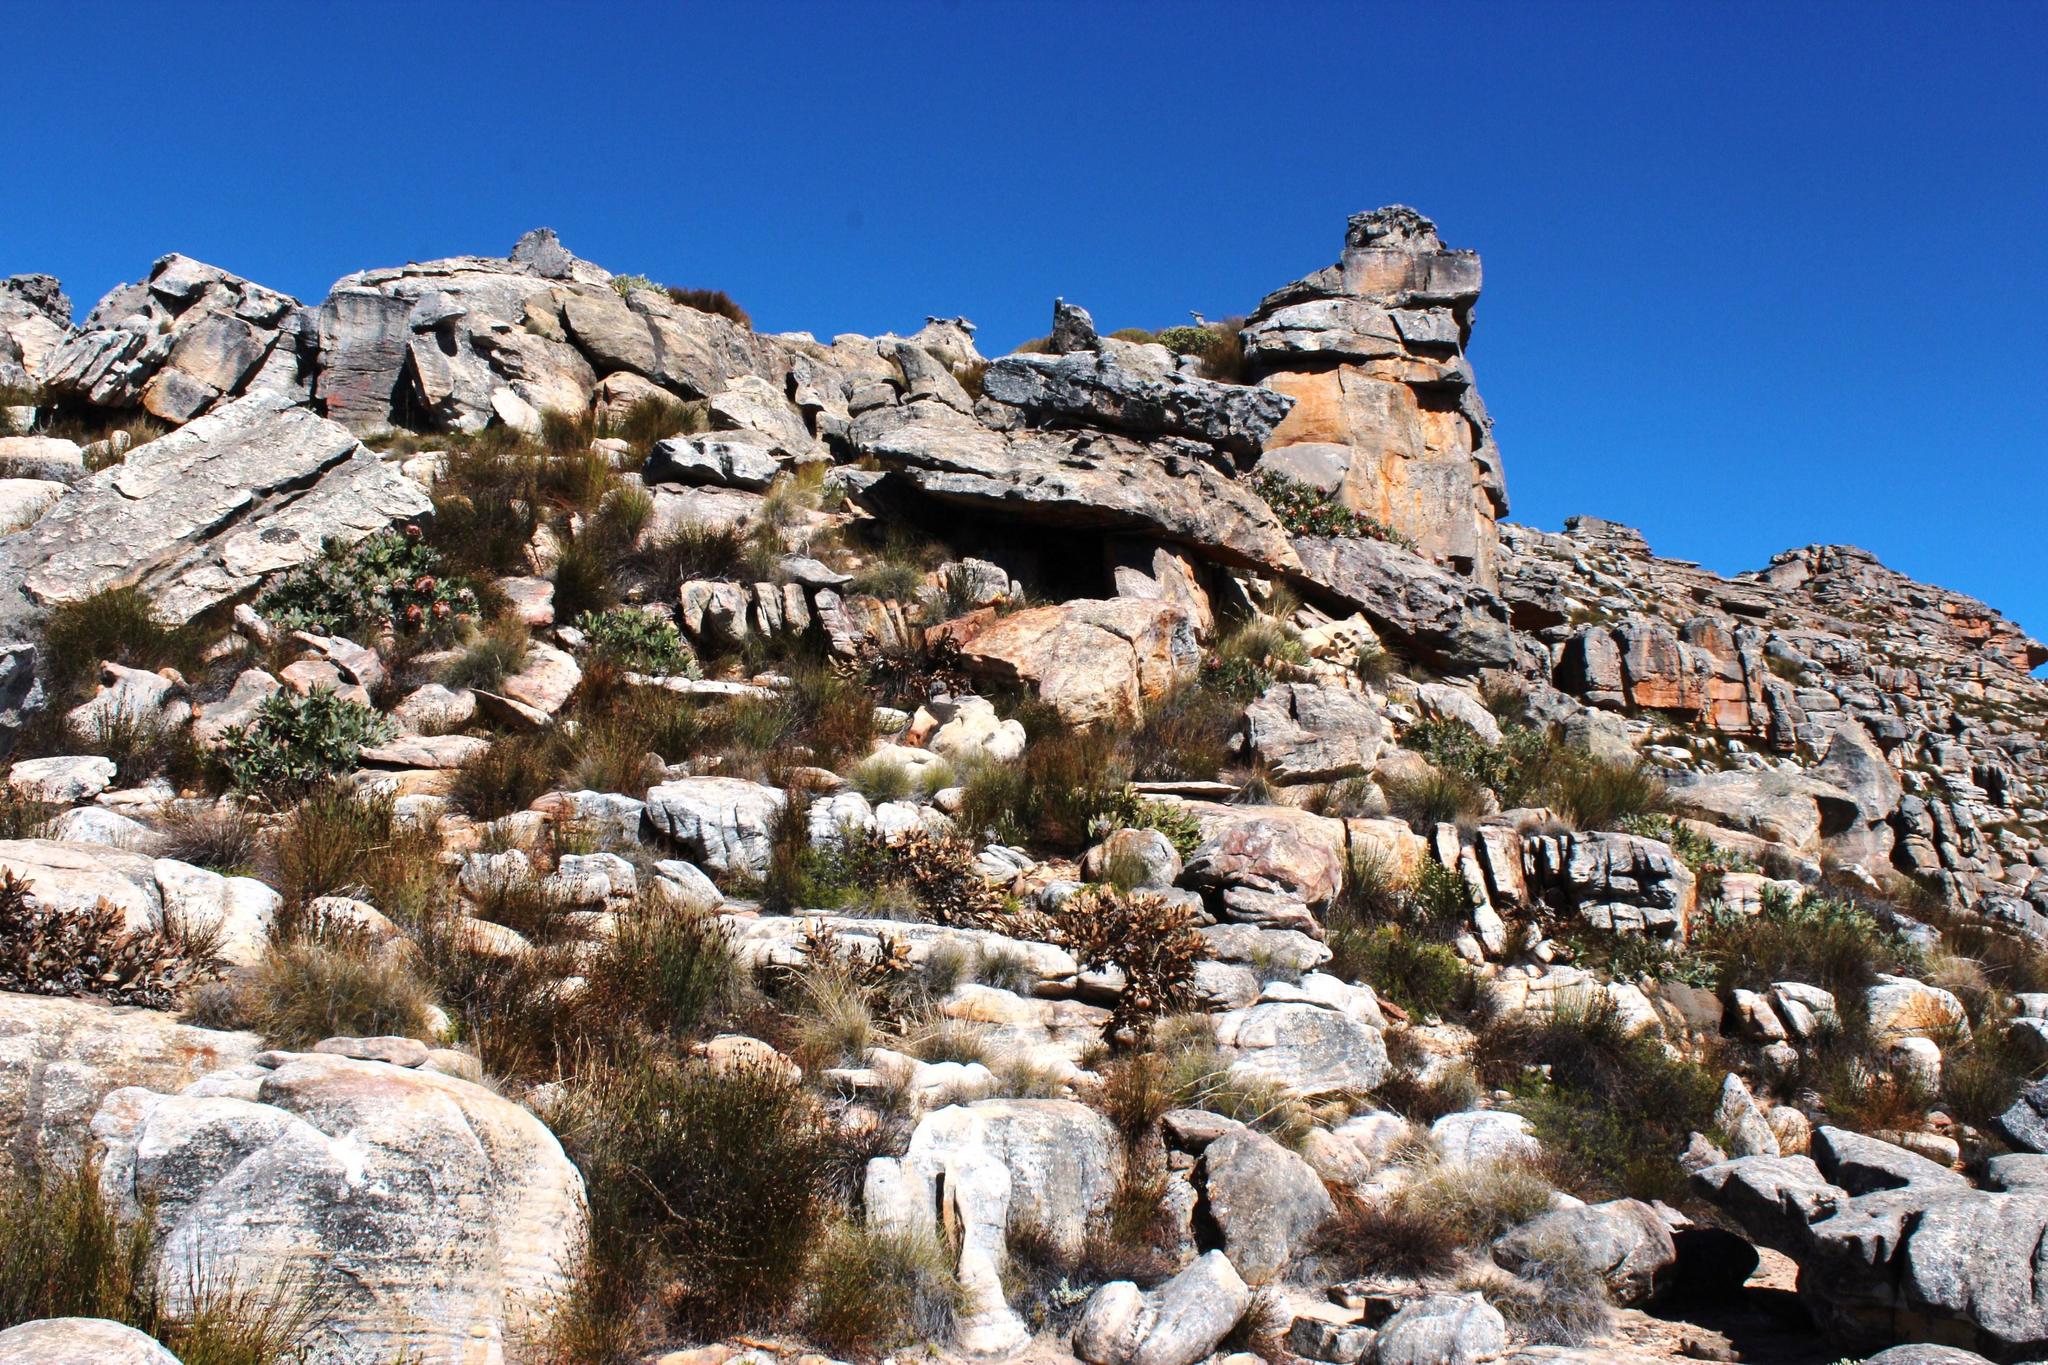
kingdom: Plantae
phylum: Tracheophyta
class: Magnoliopsida
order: Proteales
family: Proteaceae
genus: Protea
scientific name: Protea magnifica
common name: Bearded sugarbush
